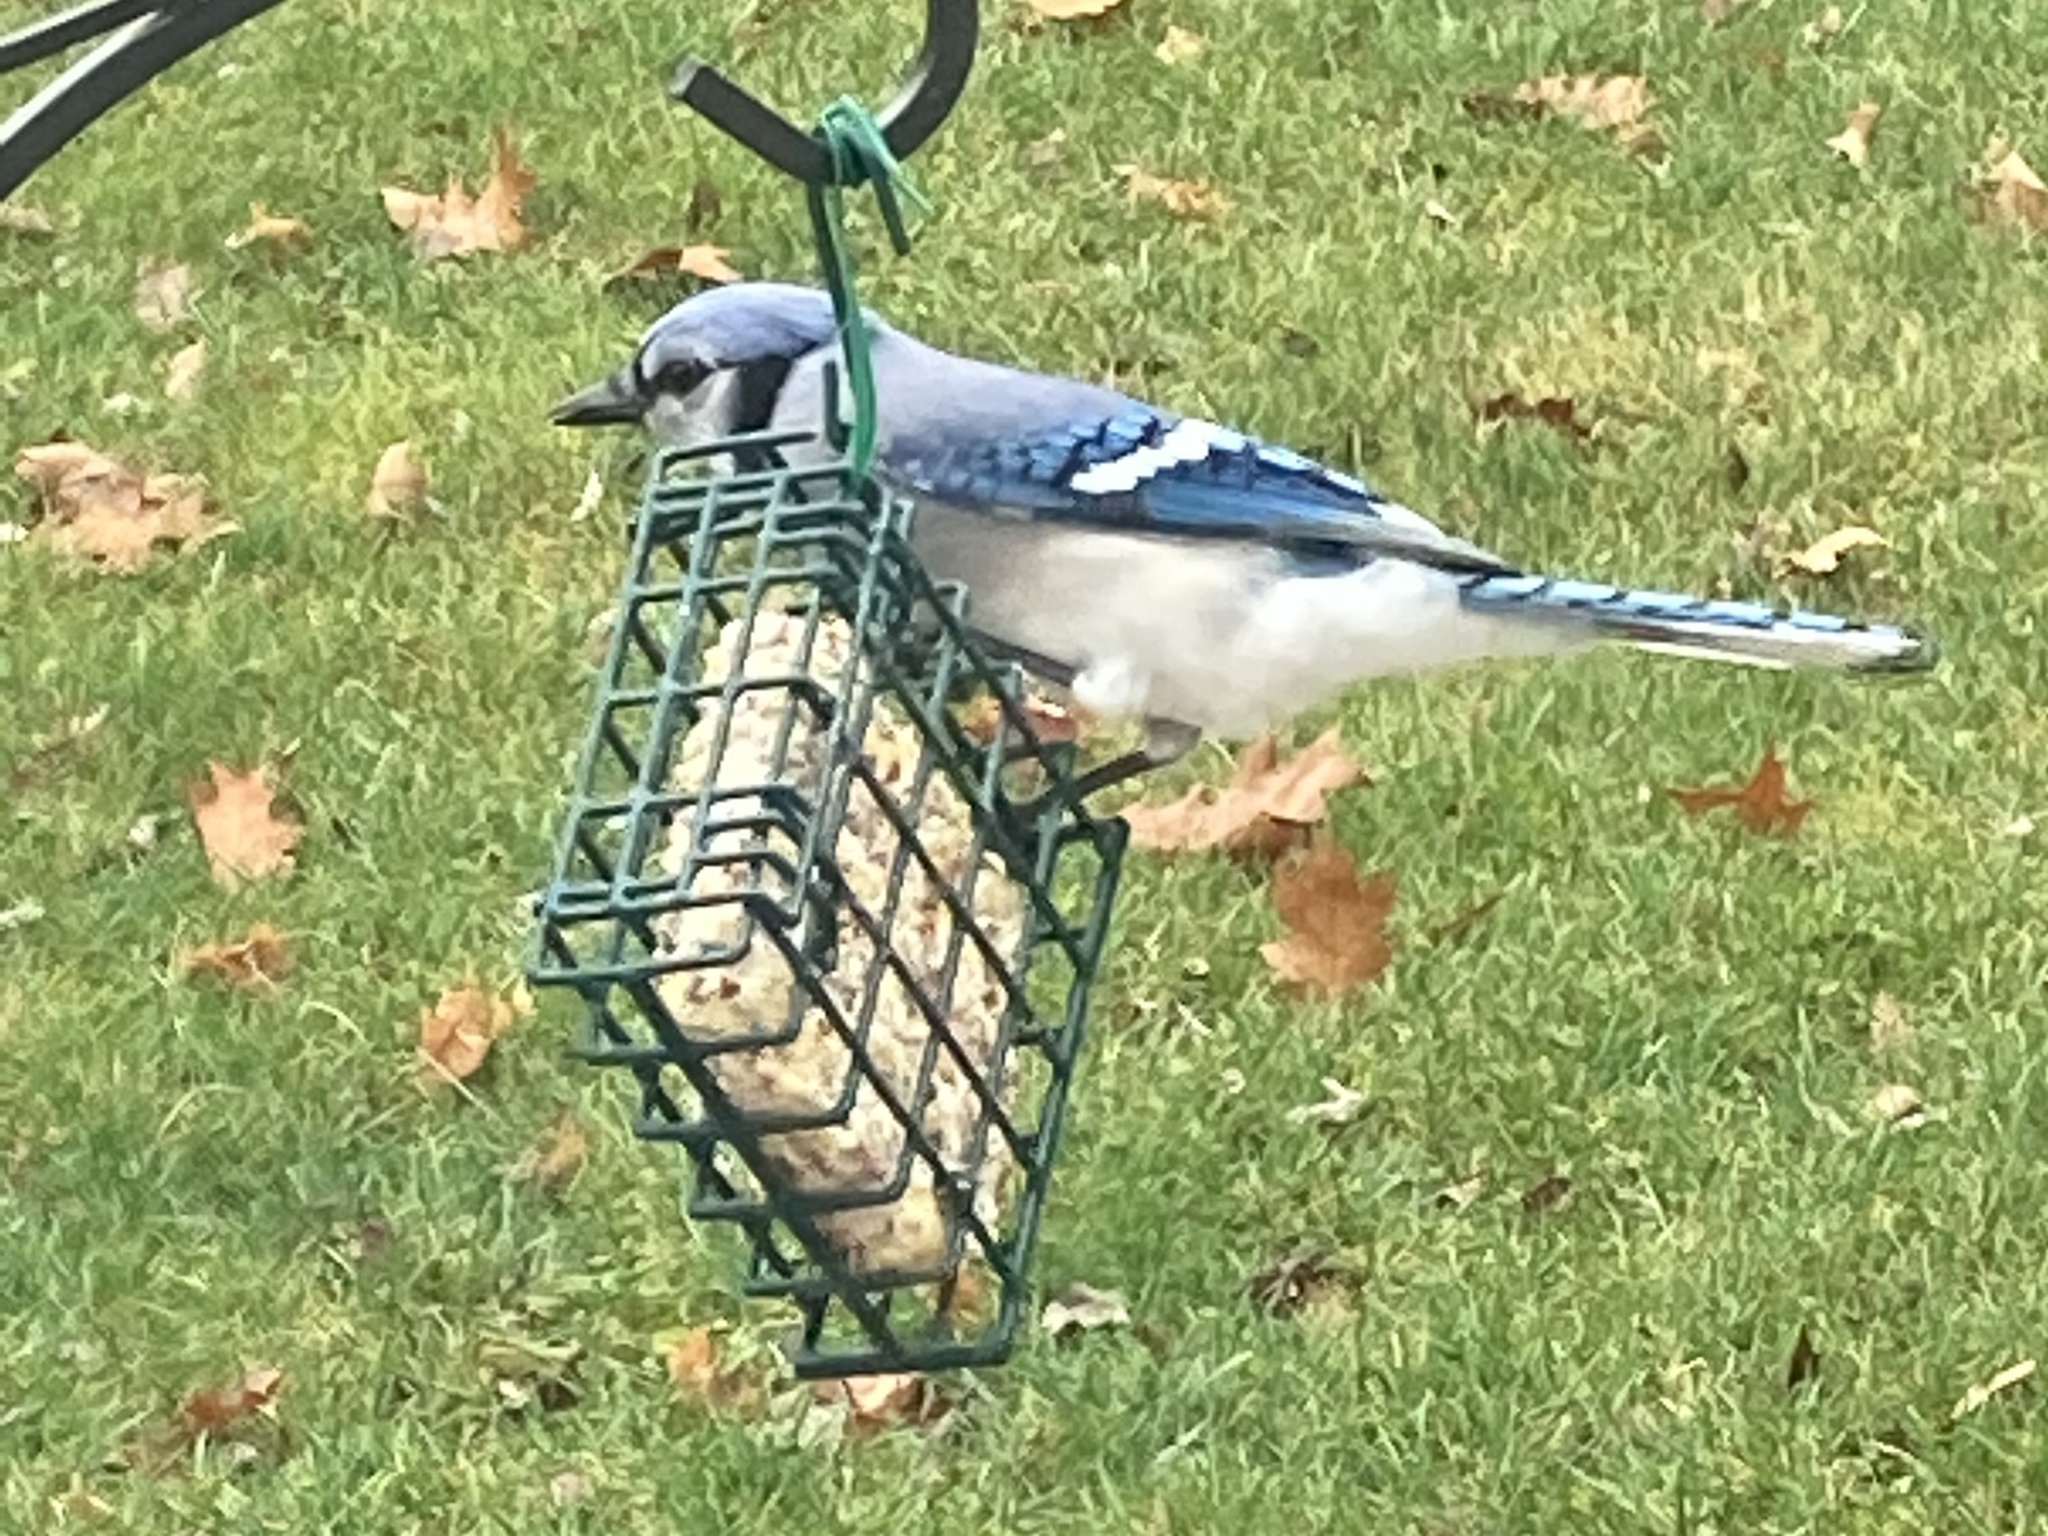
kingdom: Animalia
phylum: Chordata
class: Aves
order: Passeriformes
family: Corvidae
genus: Cyanocitta
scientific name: Cyanocitta cristata
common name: Blue jay
